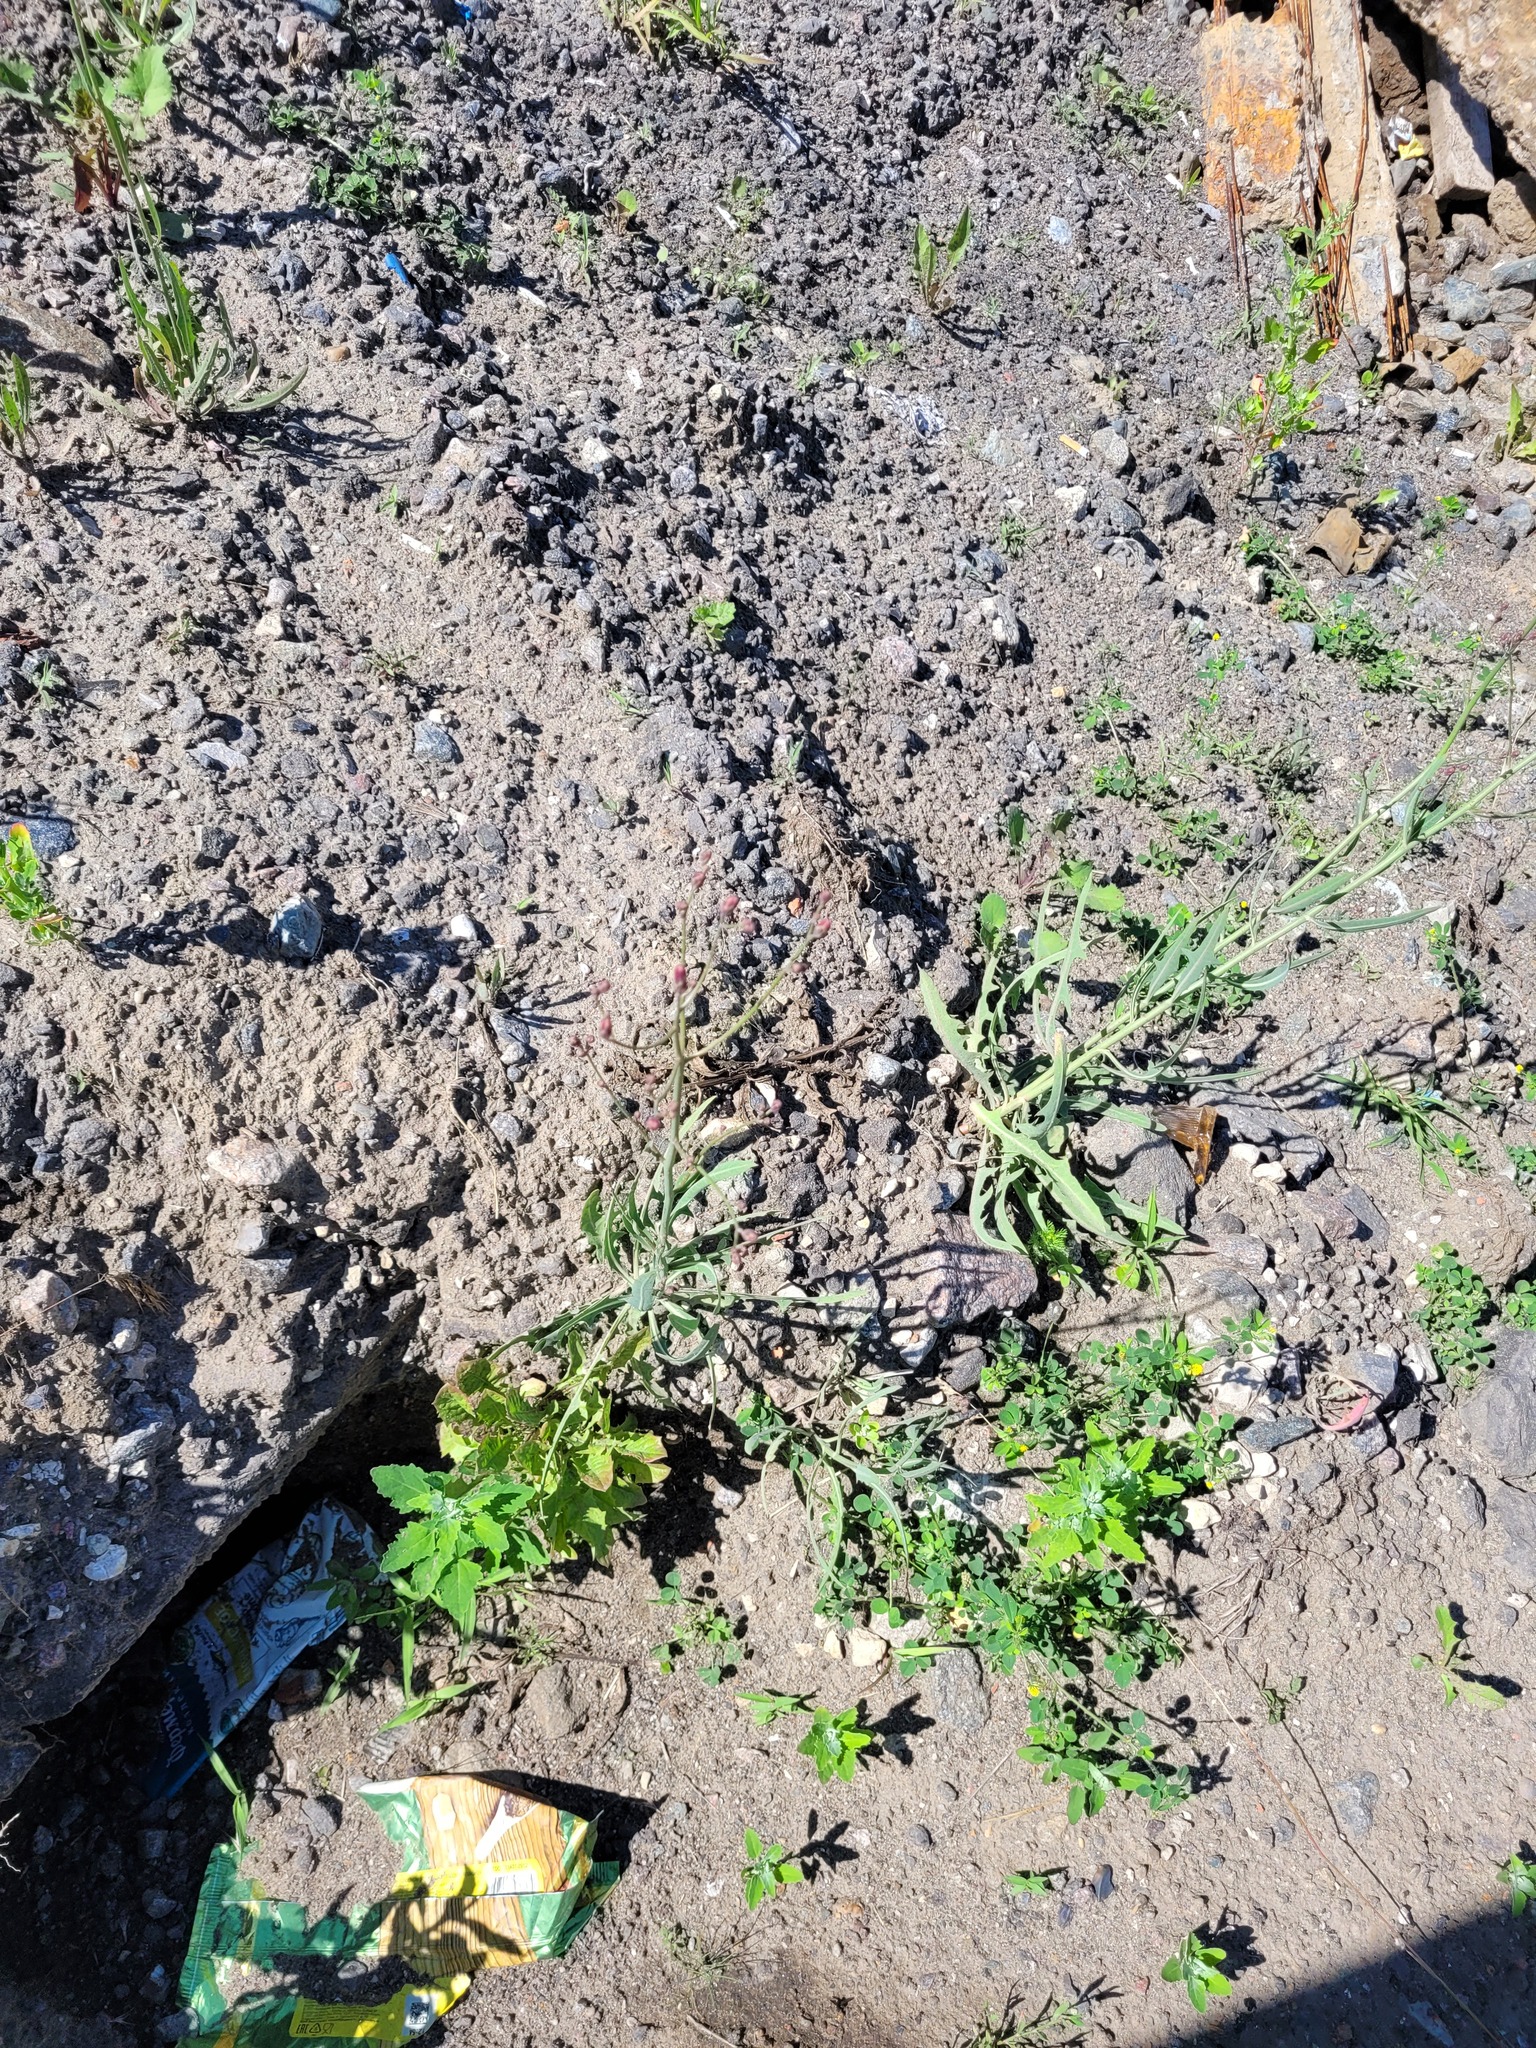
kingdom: Plantae
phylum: Tracheophyta
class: Magnoliopsida
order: Asterales
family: Asteraceae
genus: Lactuca
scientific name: Lactuca tatarica
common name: Blue lettuce
